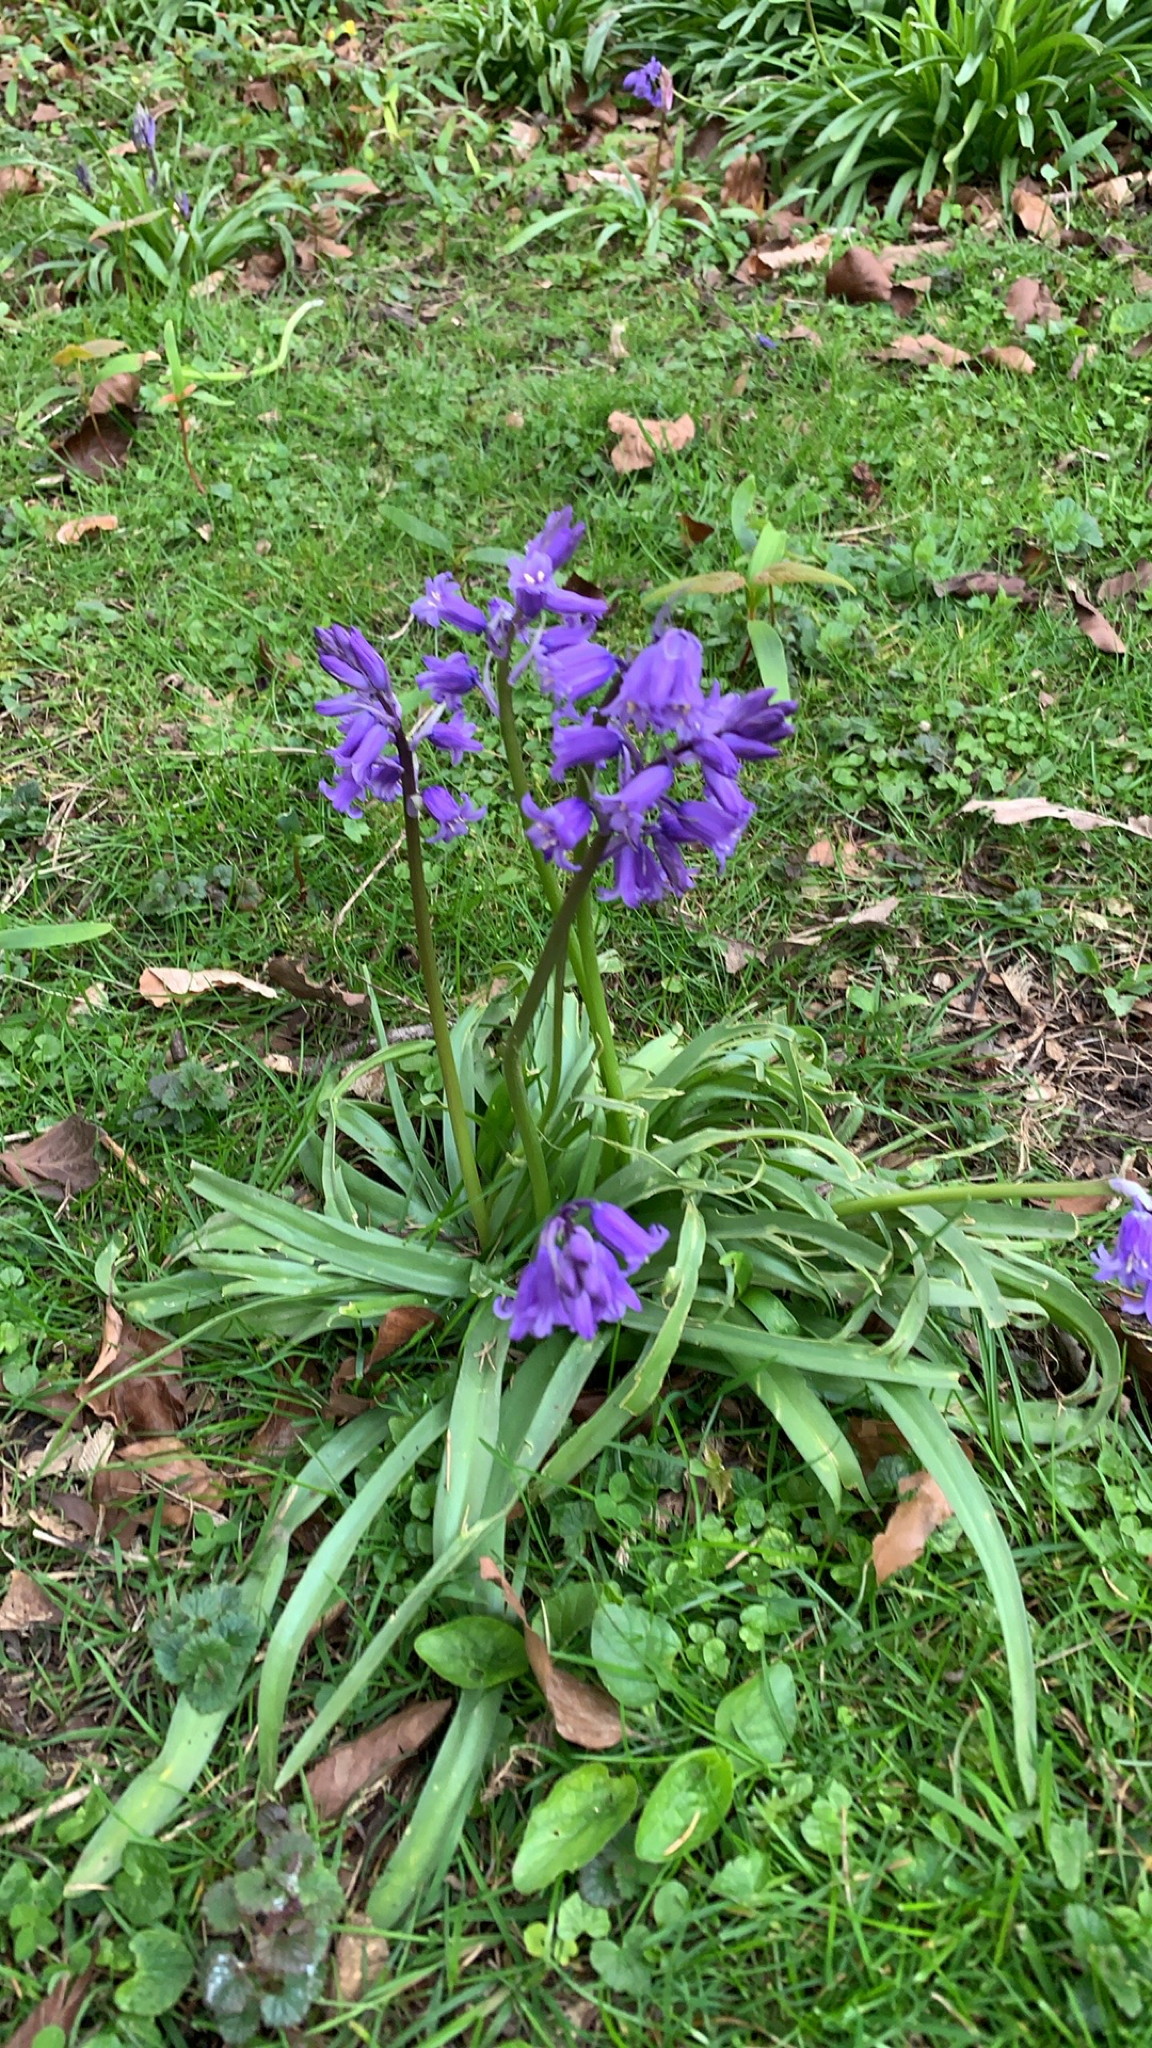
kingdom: Plantae
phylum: Tracheophyta
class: Liliopsida
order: Asparagales
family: Asparagaceae
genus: Hyacinthoides
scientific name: Hyacinthoides non-scripta
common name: Bluebell
